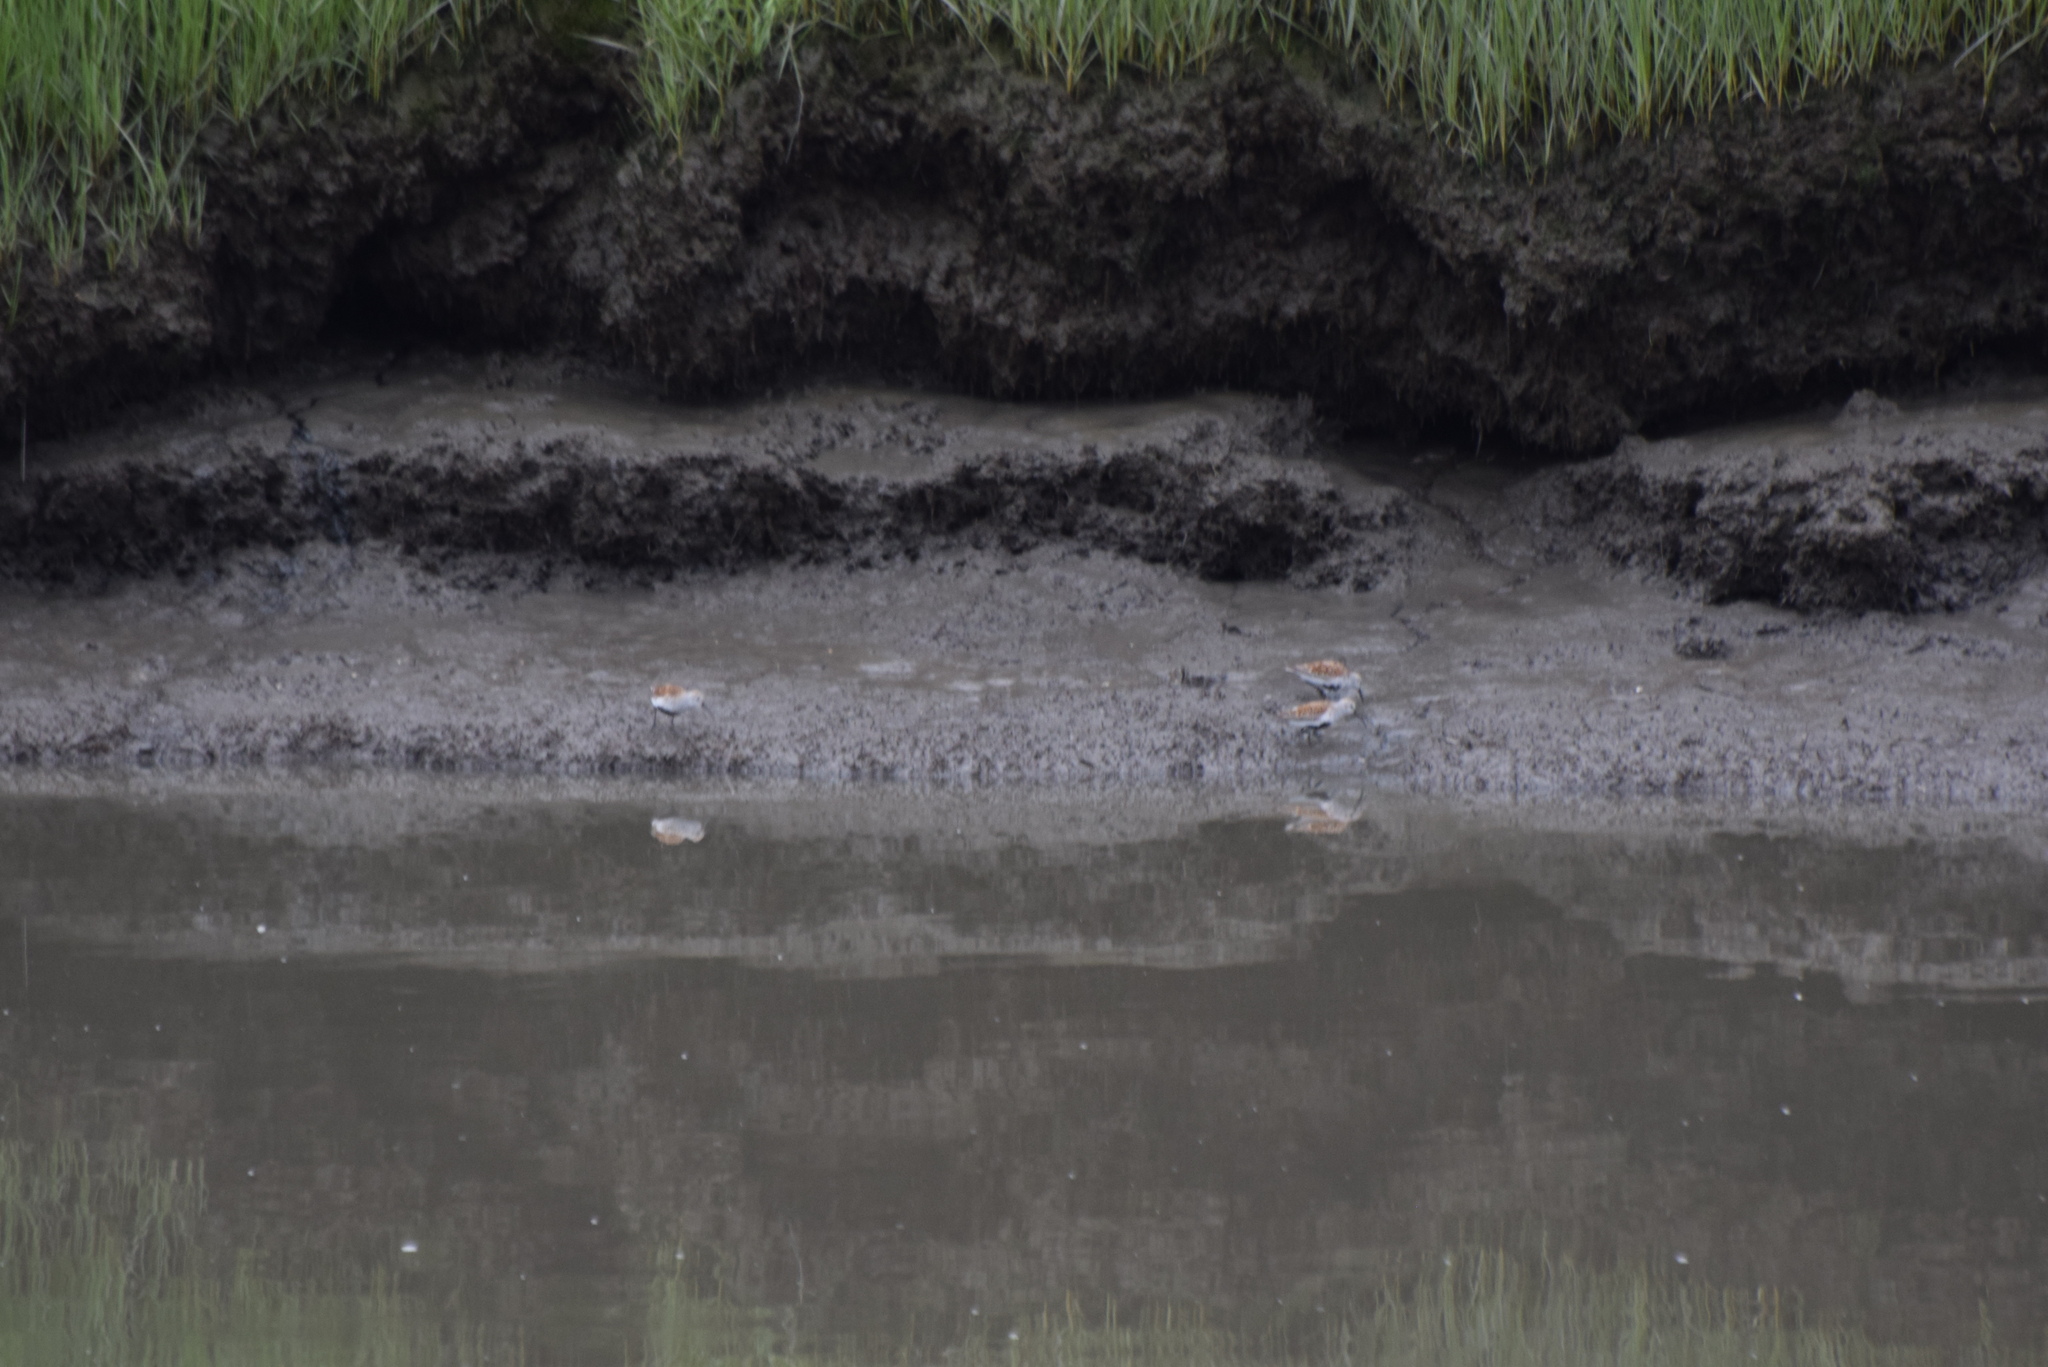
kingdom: Animalia
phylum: Chordata
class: Aves
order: Charadriiformes
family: Scolopacidae
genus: Calidris
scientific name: Calidris alpina
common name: Dunlin
